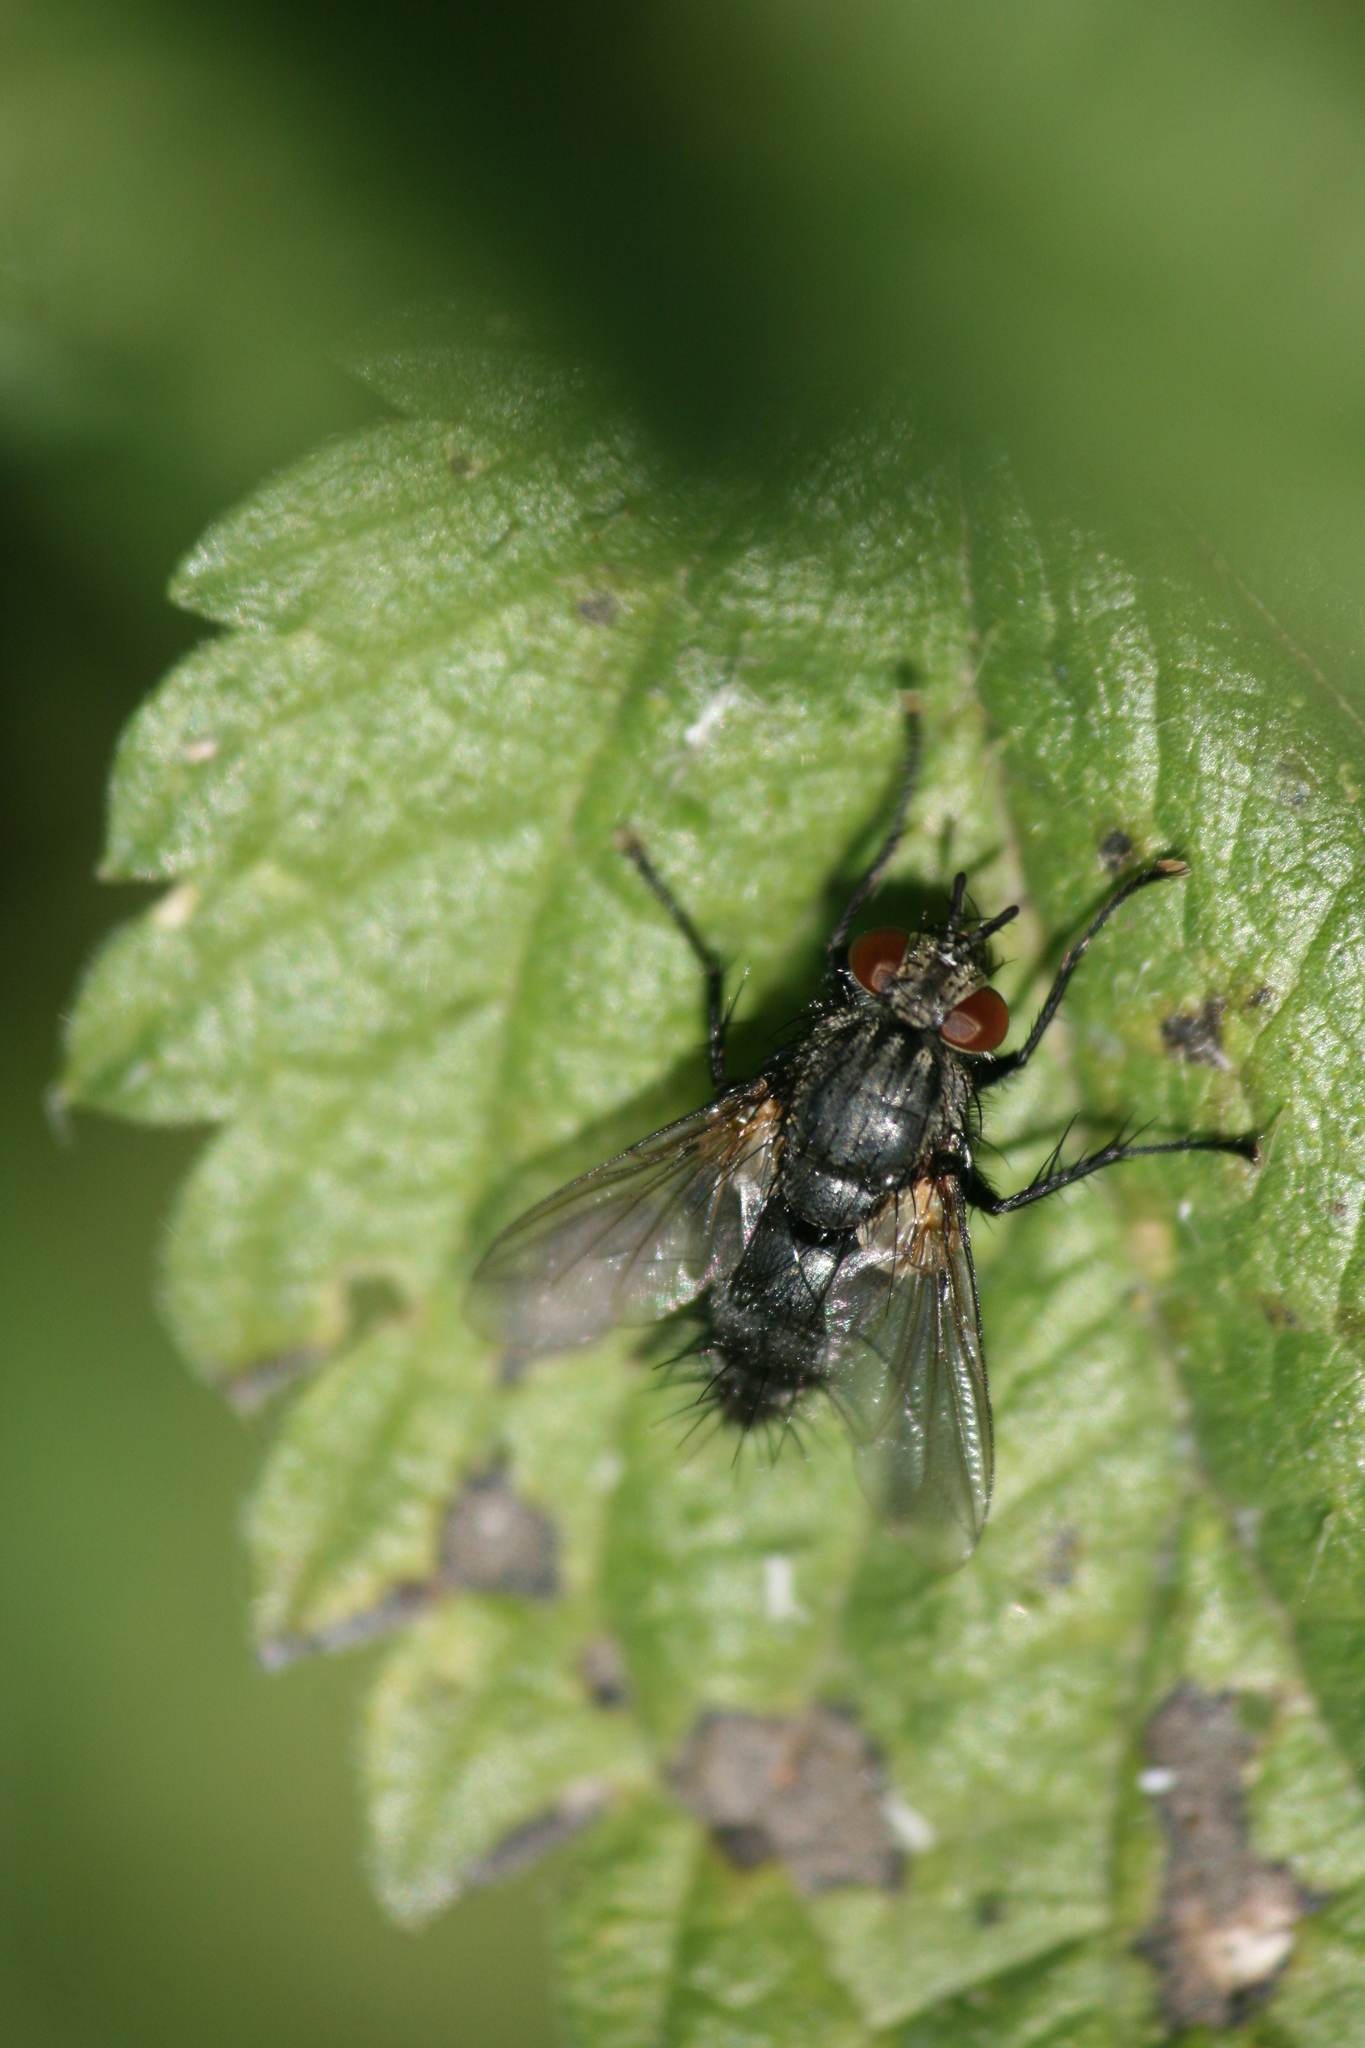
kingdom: Animalia
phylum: Arthropoda
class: Insecta
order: Diptera
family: Tachinidae
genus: Voria
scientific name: Voria ruralis
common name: Parasitic fly
